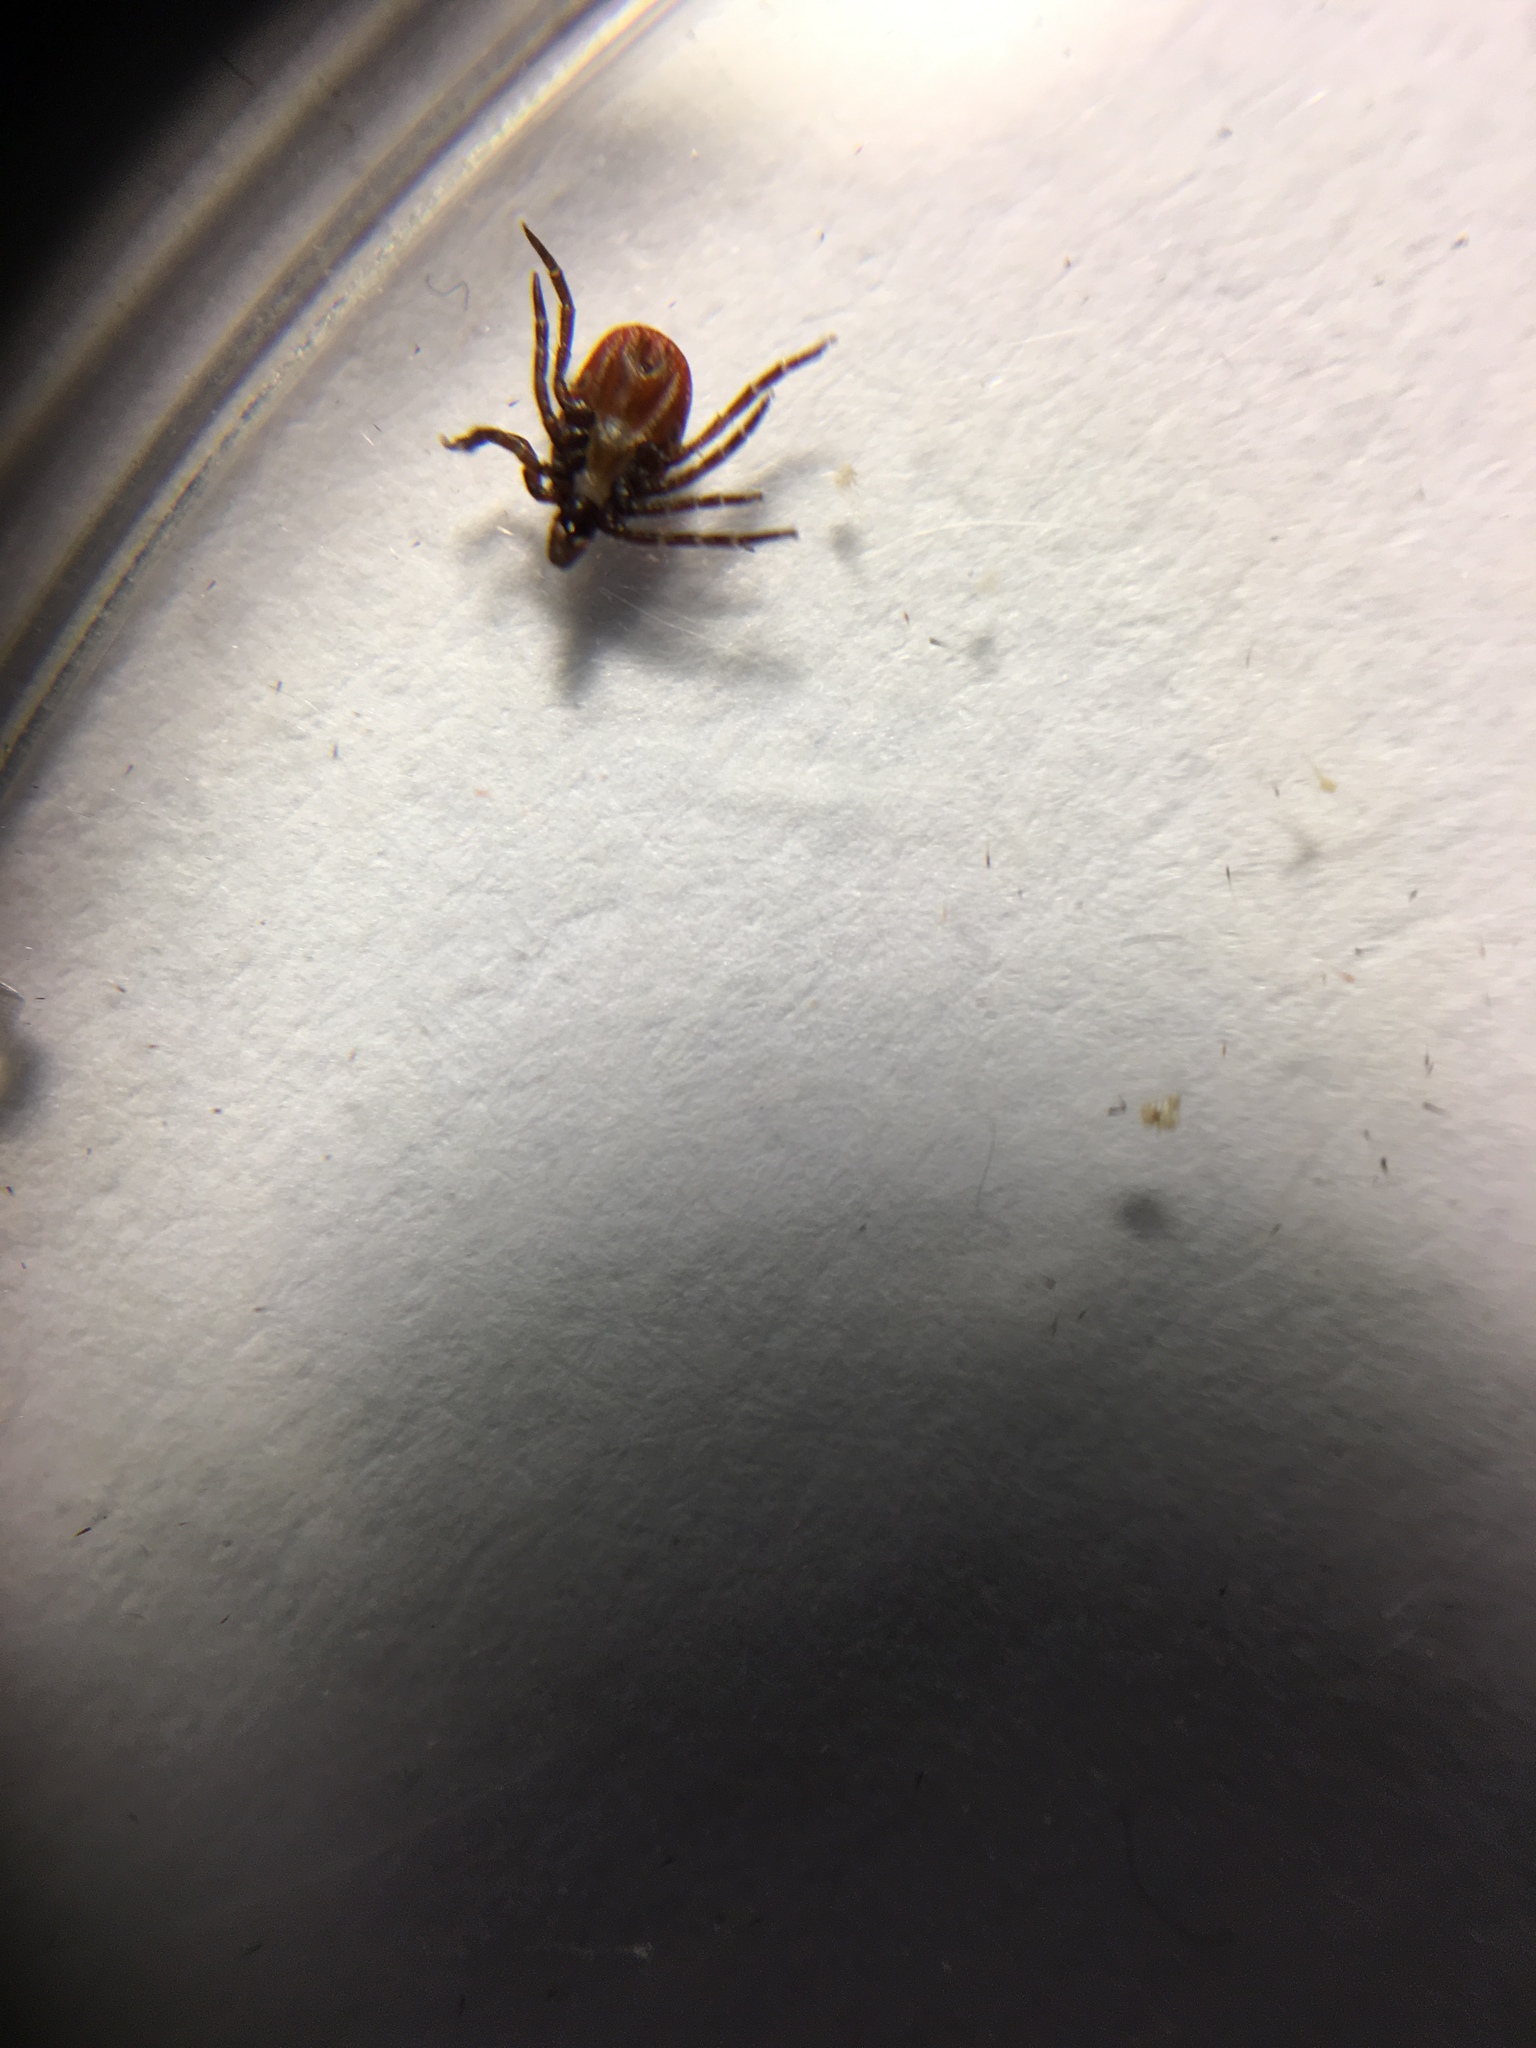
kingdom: Animalia
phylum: Arthropoda
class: Arachnida
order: Ixodida
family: Ixodidae
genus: Ixodes
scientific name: Ixodes scapularis
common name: Black legged tick
